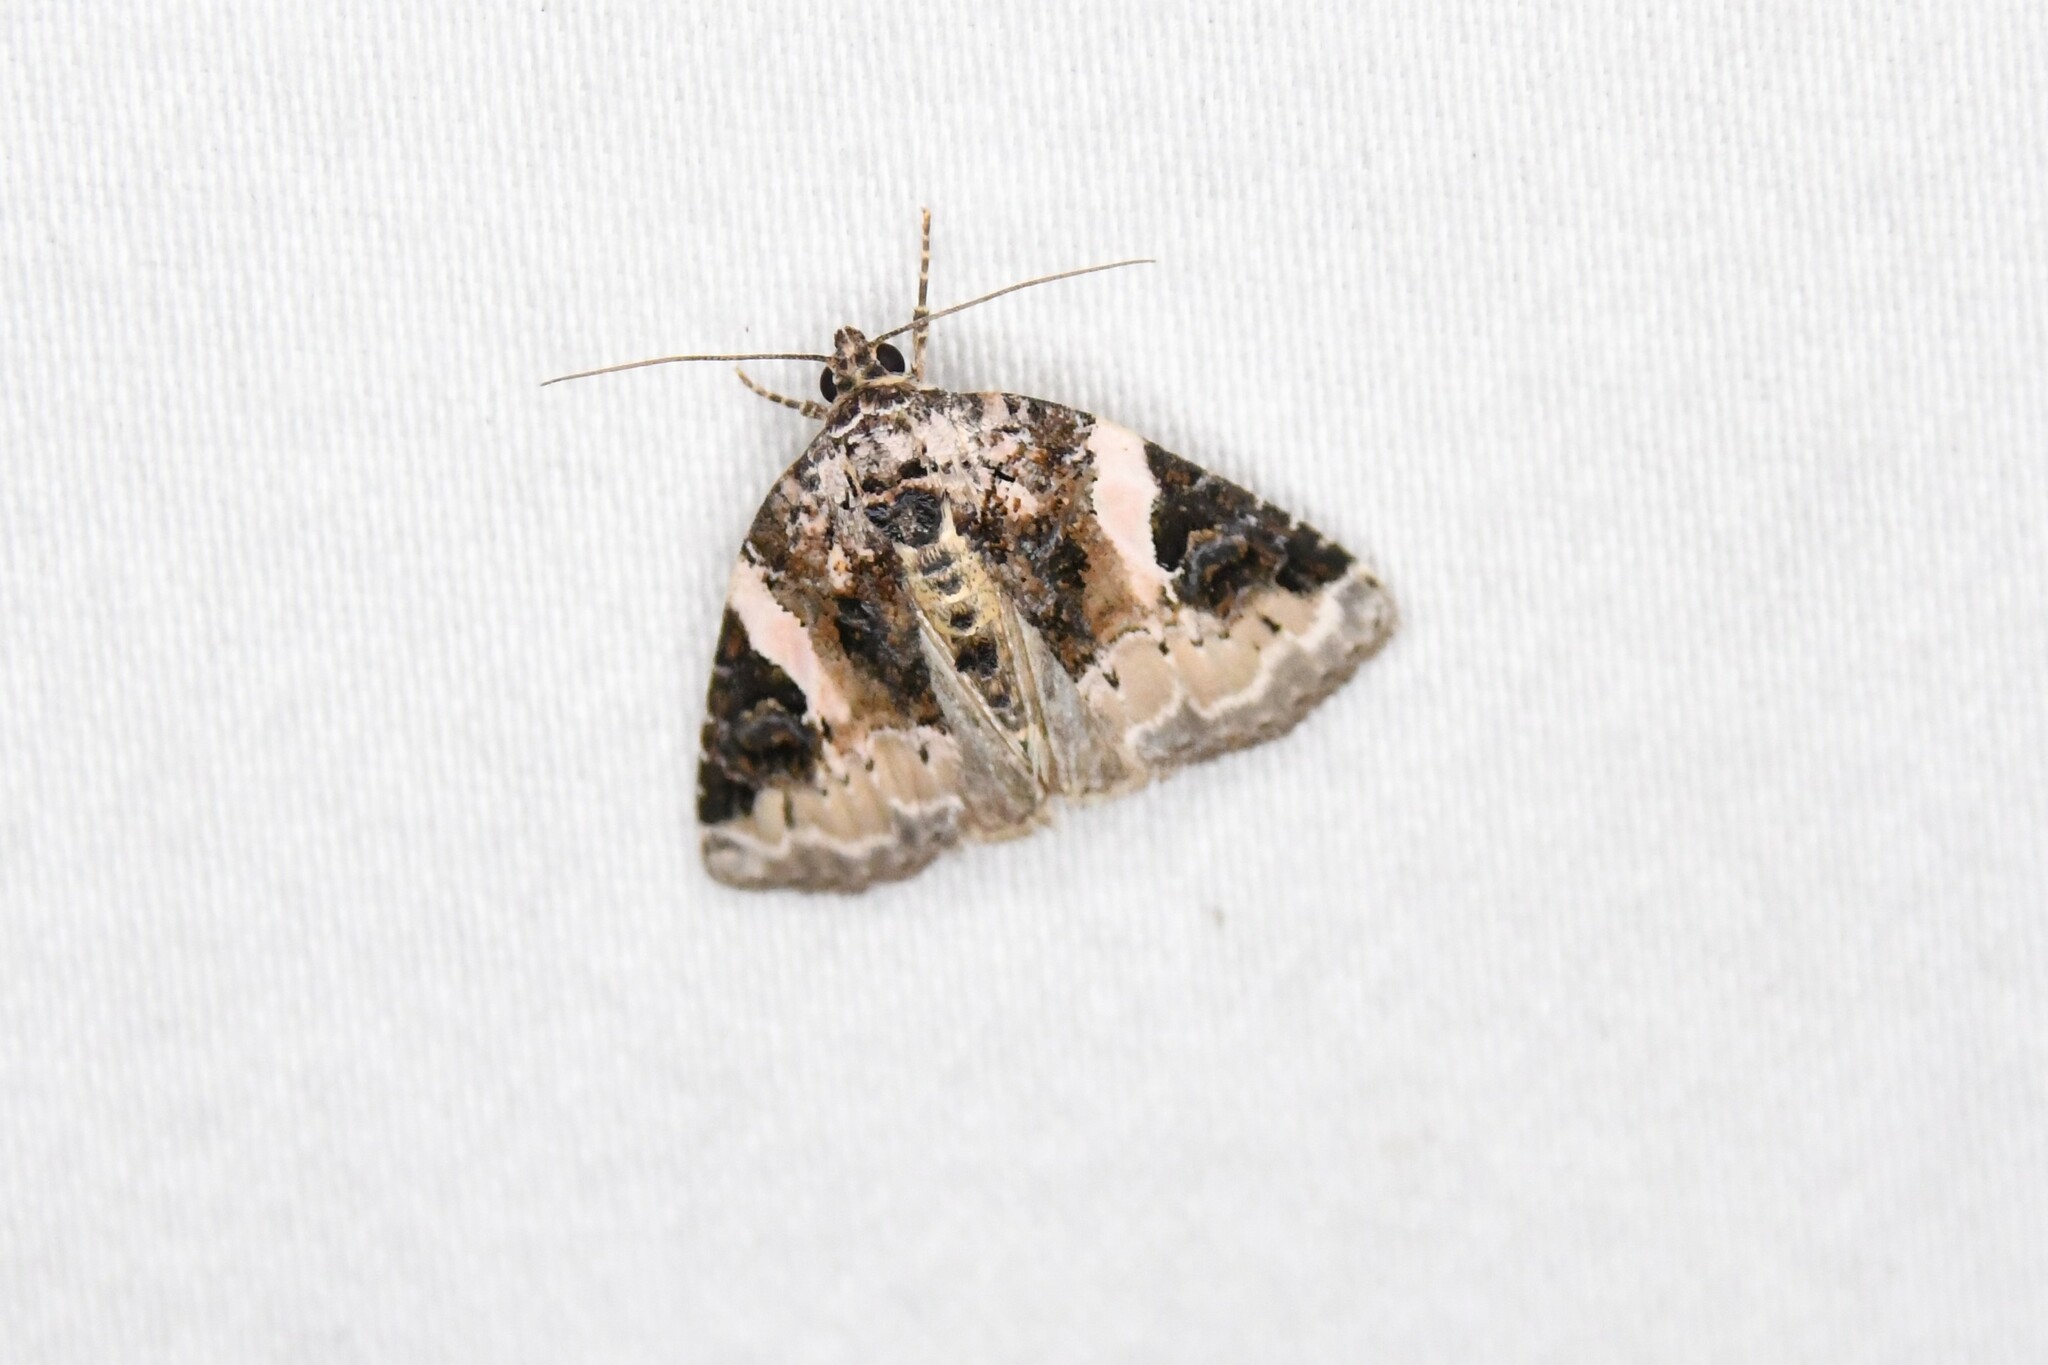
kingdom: Animalia
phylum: Arthropoda
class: Insecta
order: Lepidoptera
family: Noctuidae
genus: Pseudeustrotia
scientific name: Pseudeustrotia carneola
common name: Pink-barred lithacodia moth
